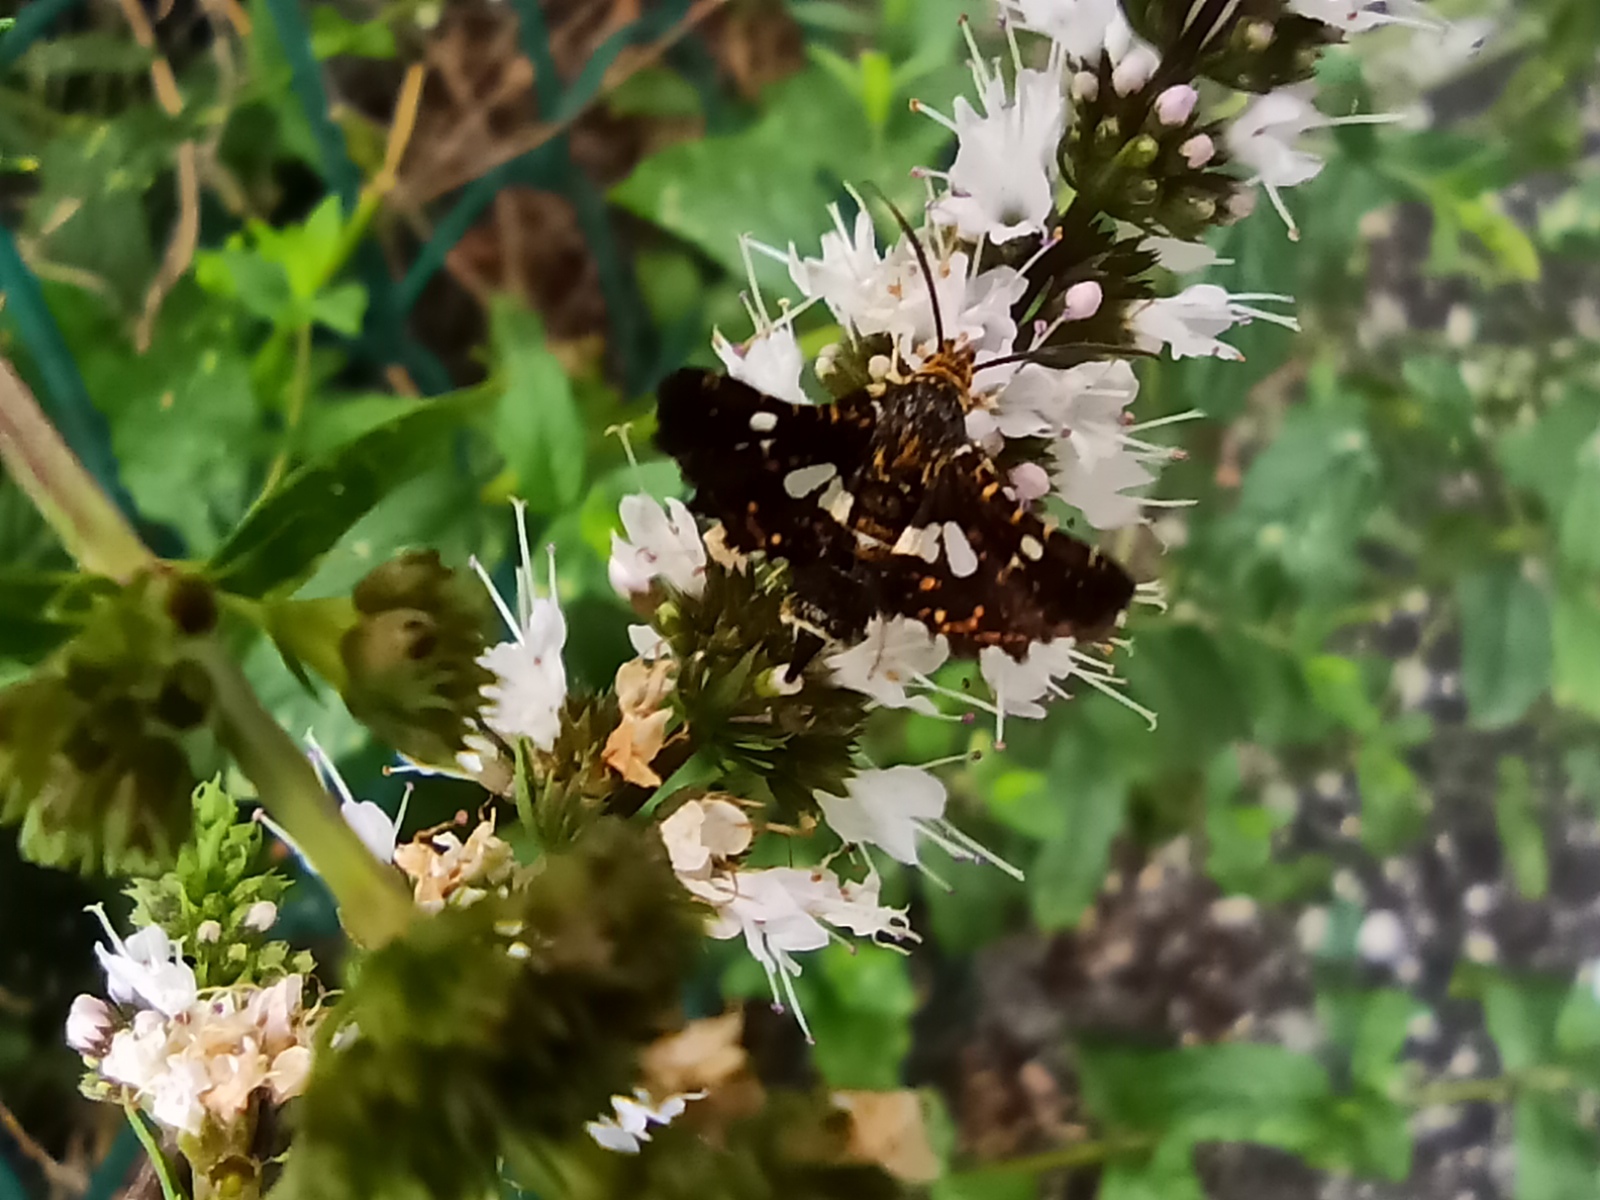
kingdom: Animalia
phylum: Arthropoda
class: Insecta
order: Lepidoptera
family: Thyrididae
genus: Thyris
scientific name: Thyris fenestrella
